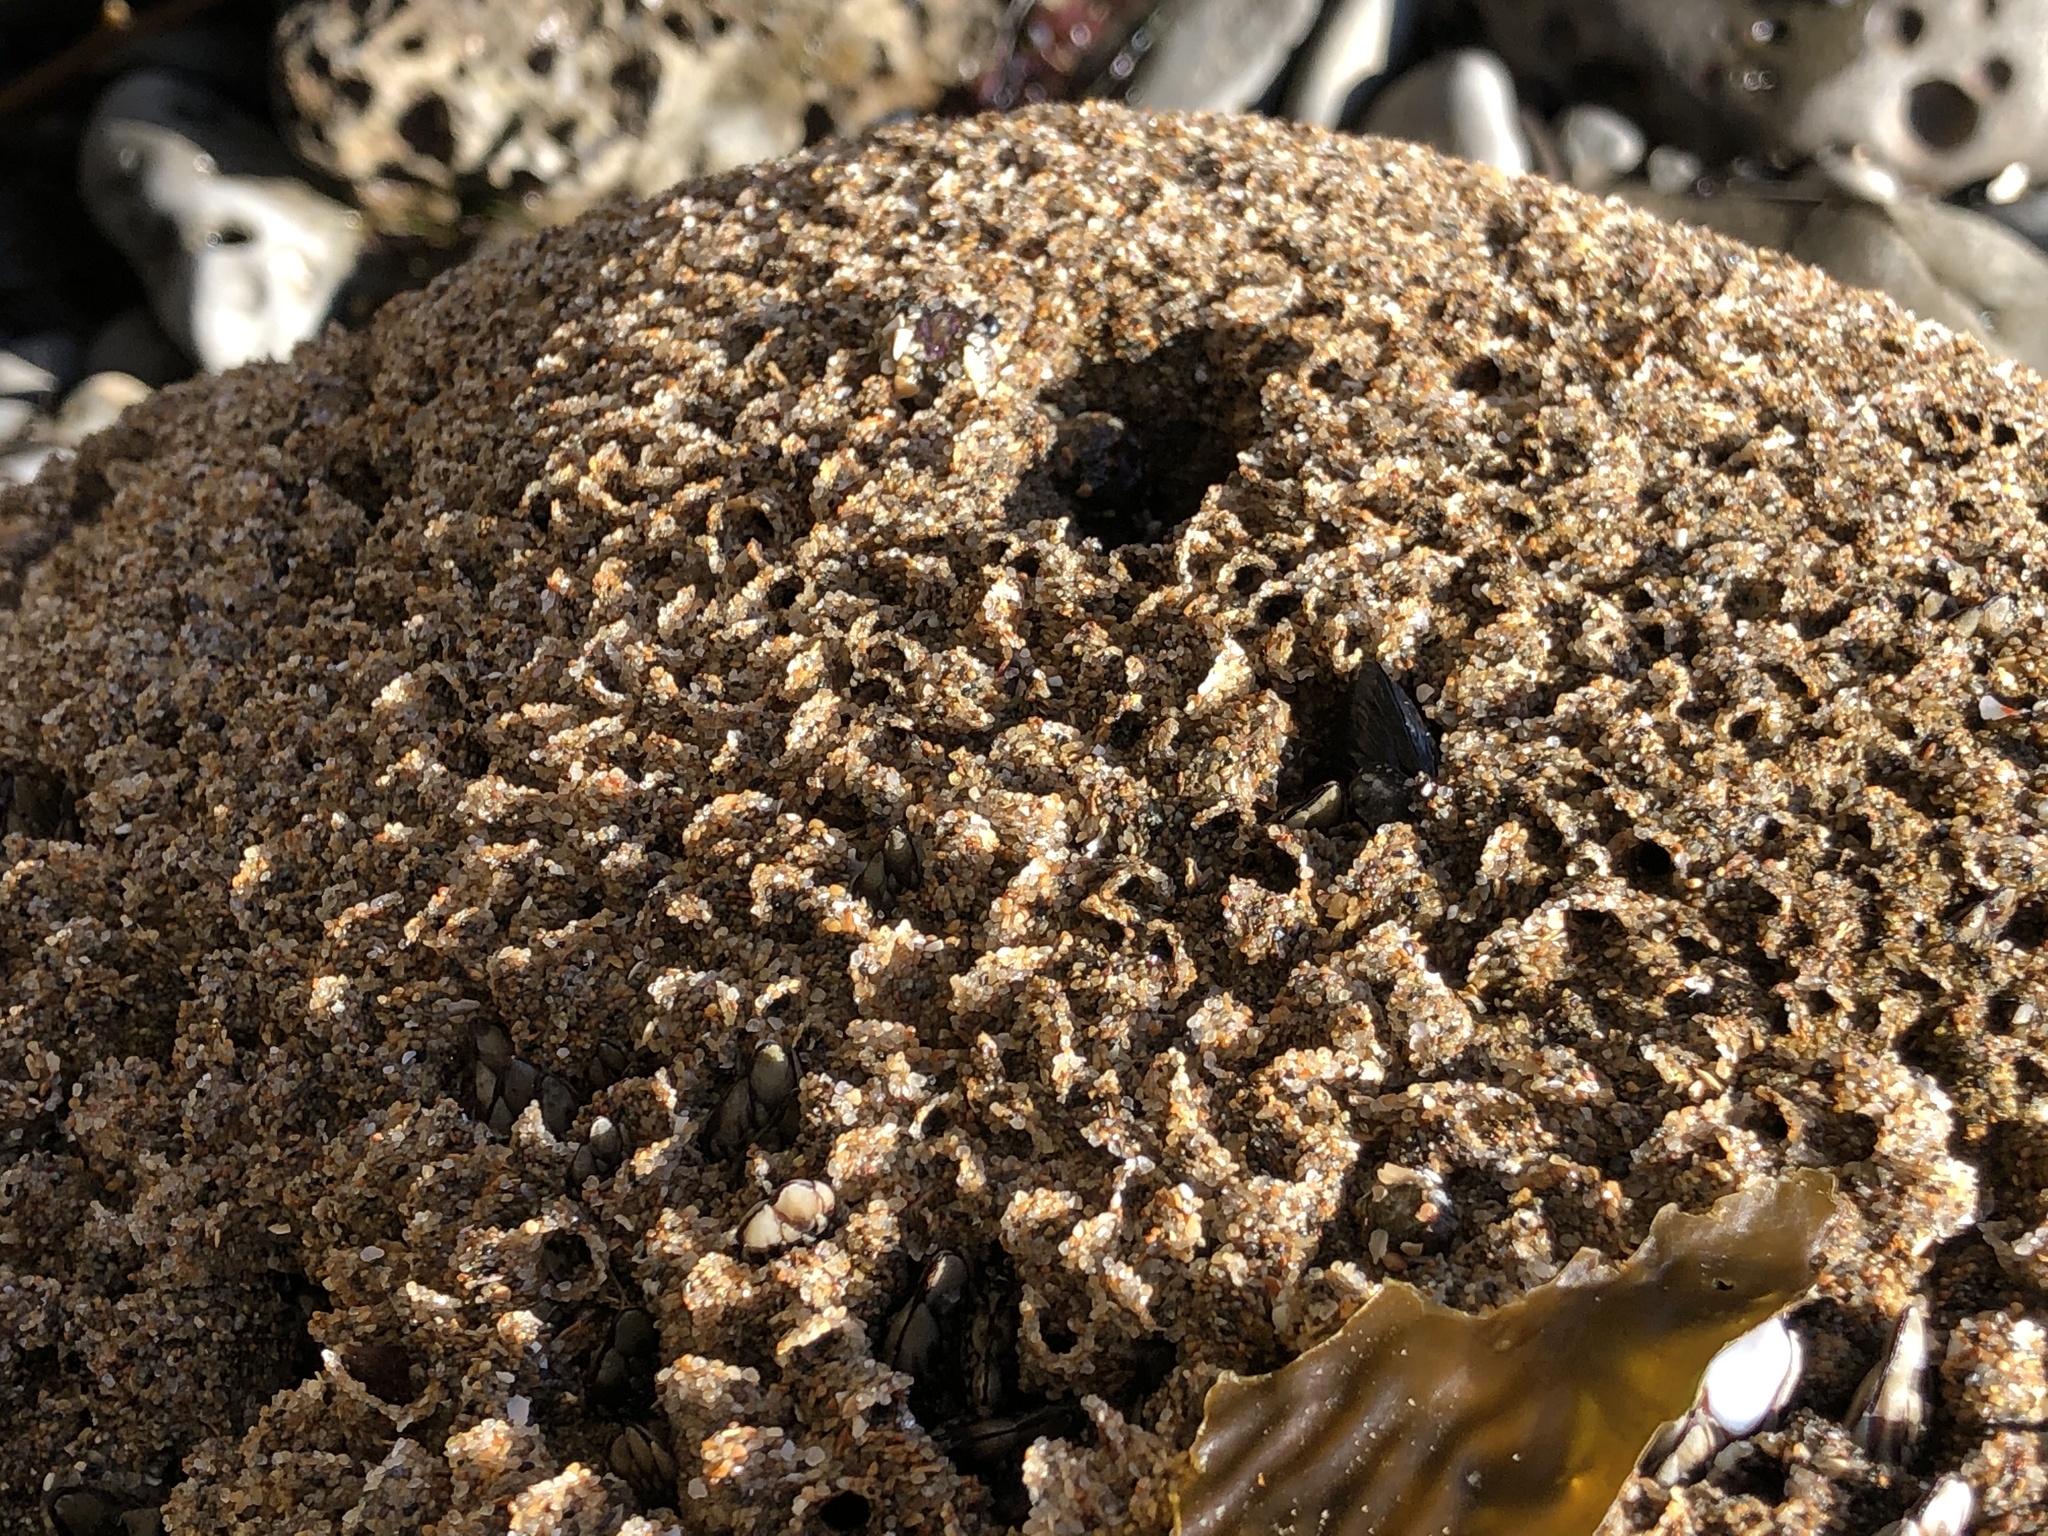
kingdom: Animalia
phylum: Annelida
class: Polychaeta
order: Sabellida
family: Sabellariidae
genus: Phragmatopoma
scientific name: Phragmatopoma californica
